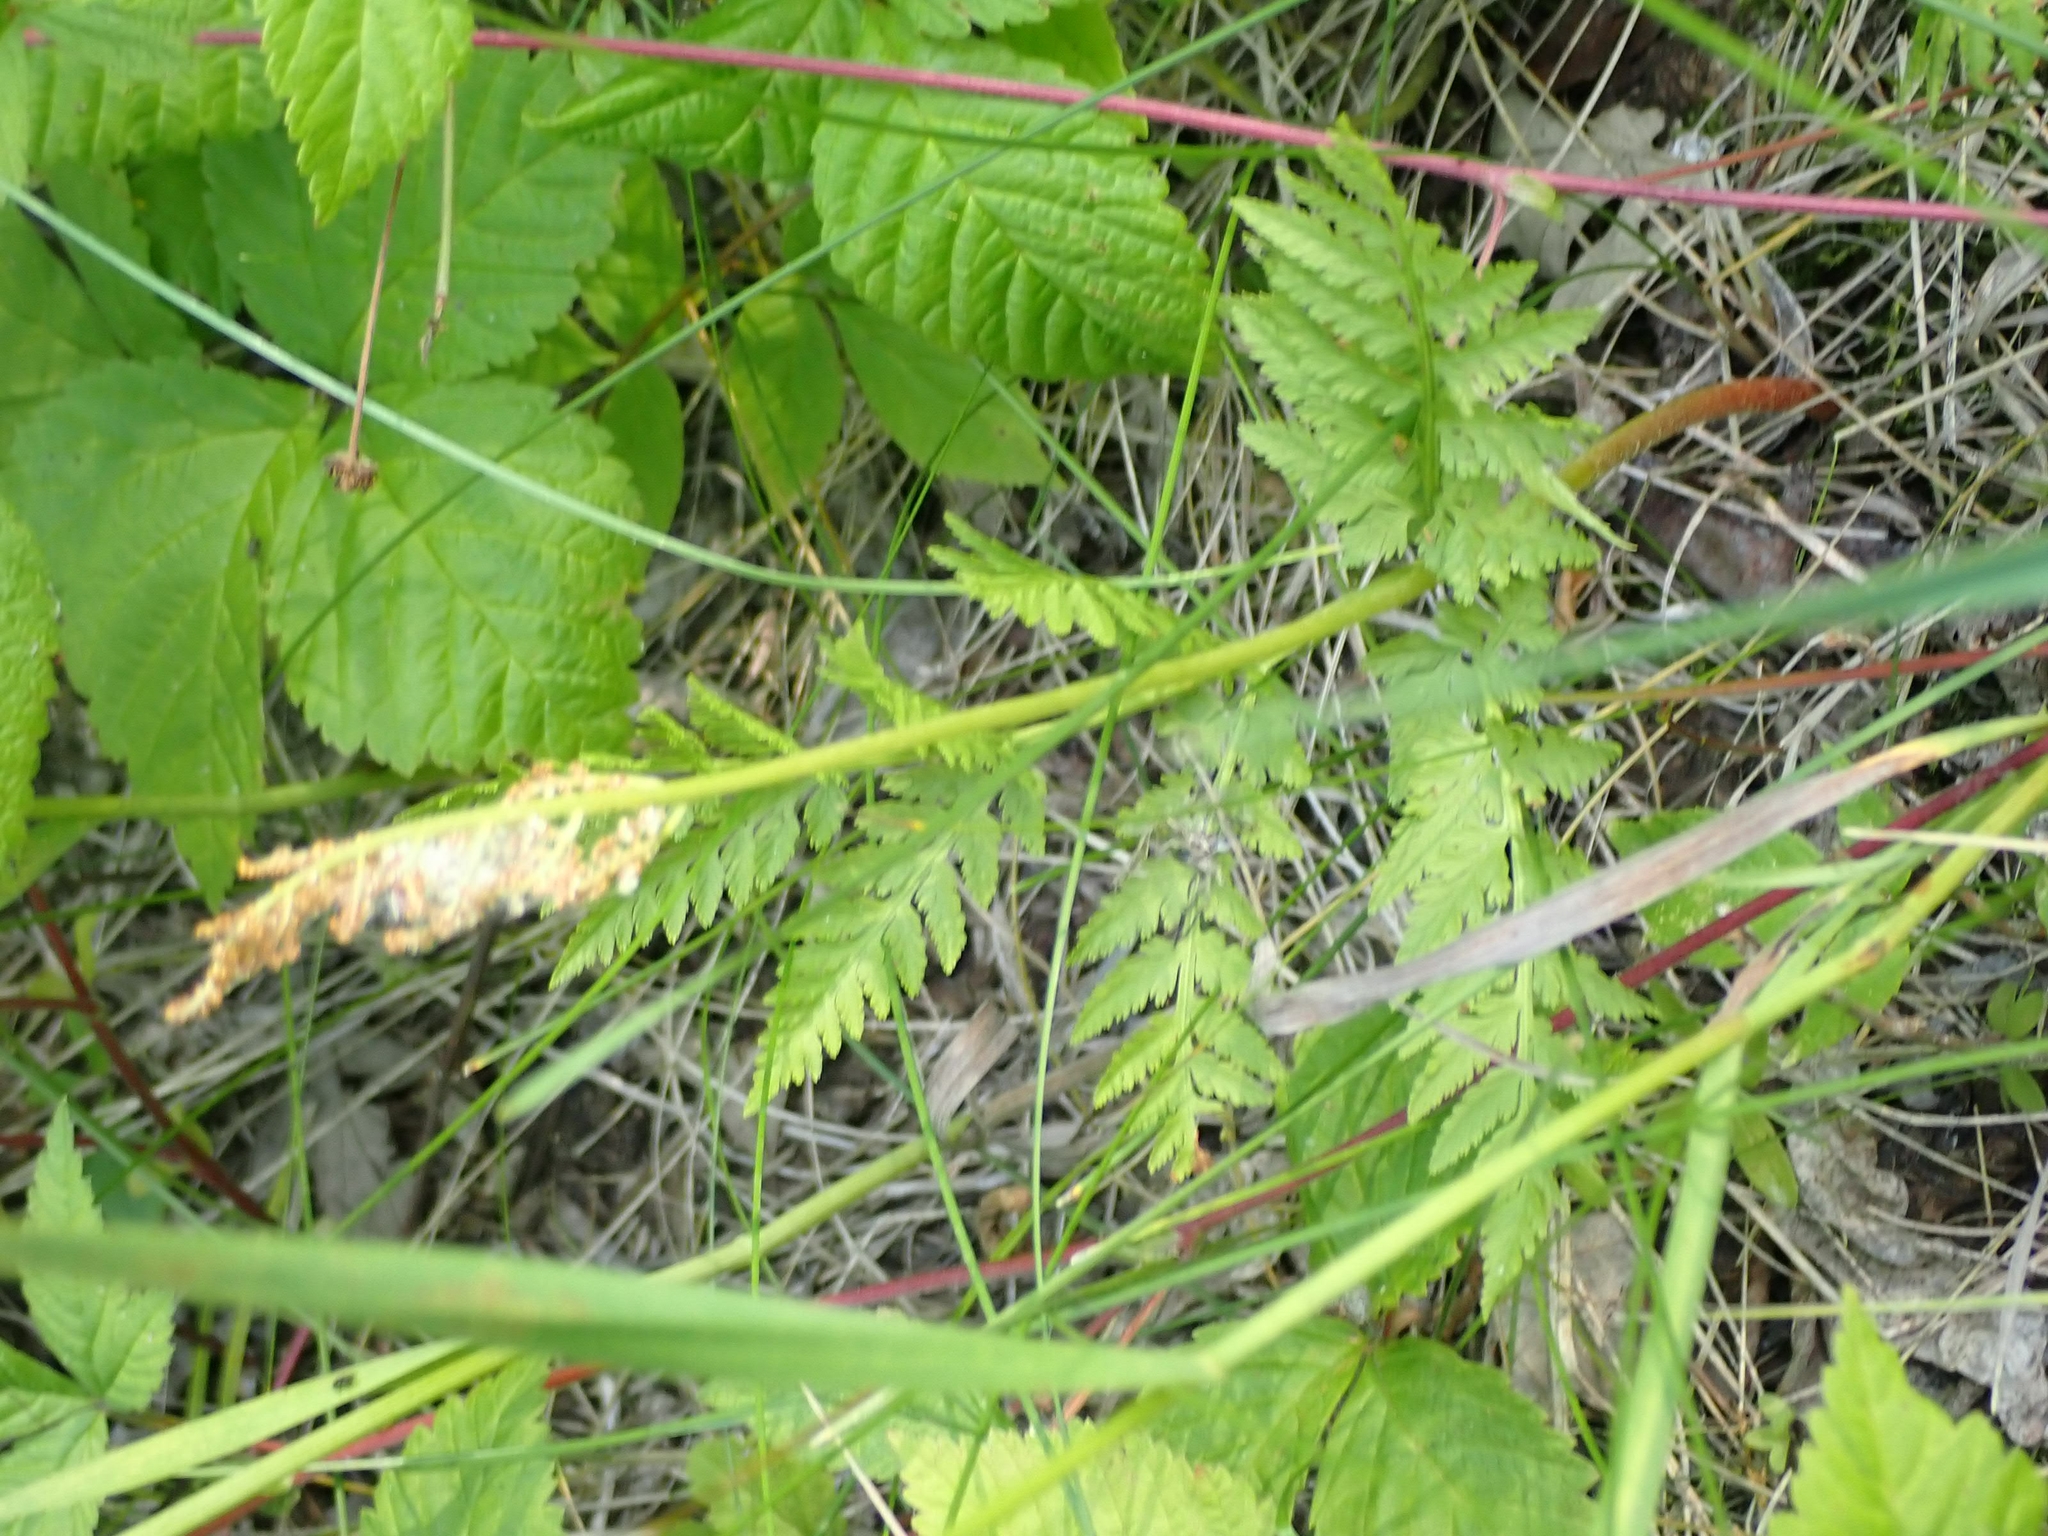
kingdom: Plantae
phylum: Tracheophyta
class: Polypodiopsida
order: Ophioglossales
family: Ophioglossaceae
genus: Botrypus
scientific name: Botrypus virginianus
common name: Common grapefern
